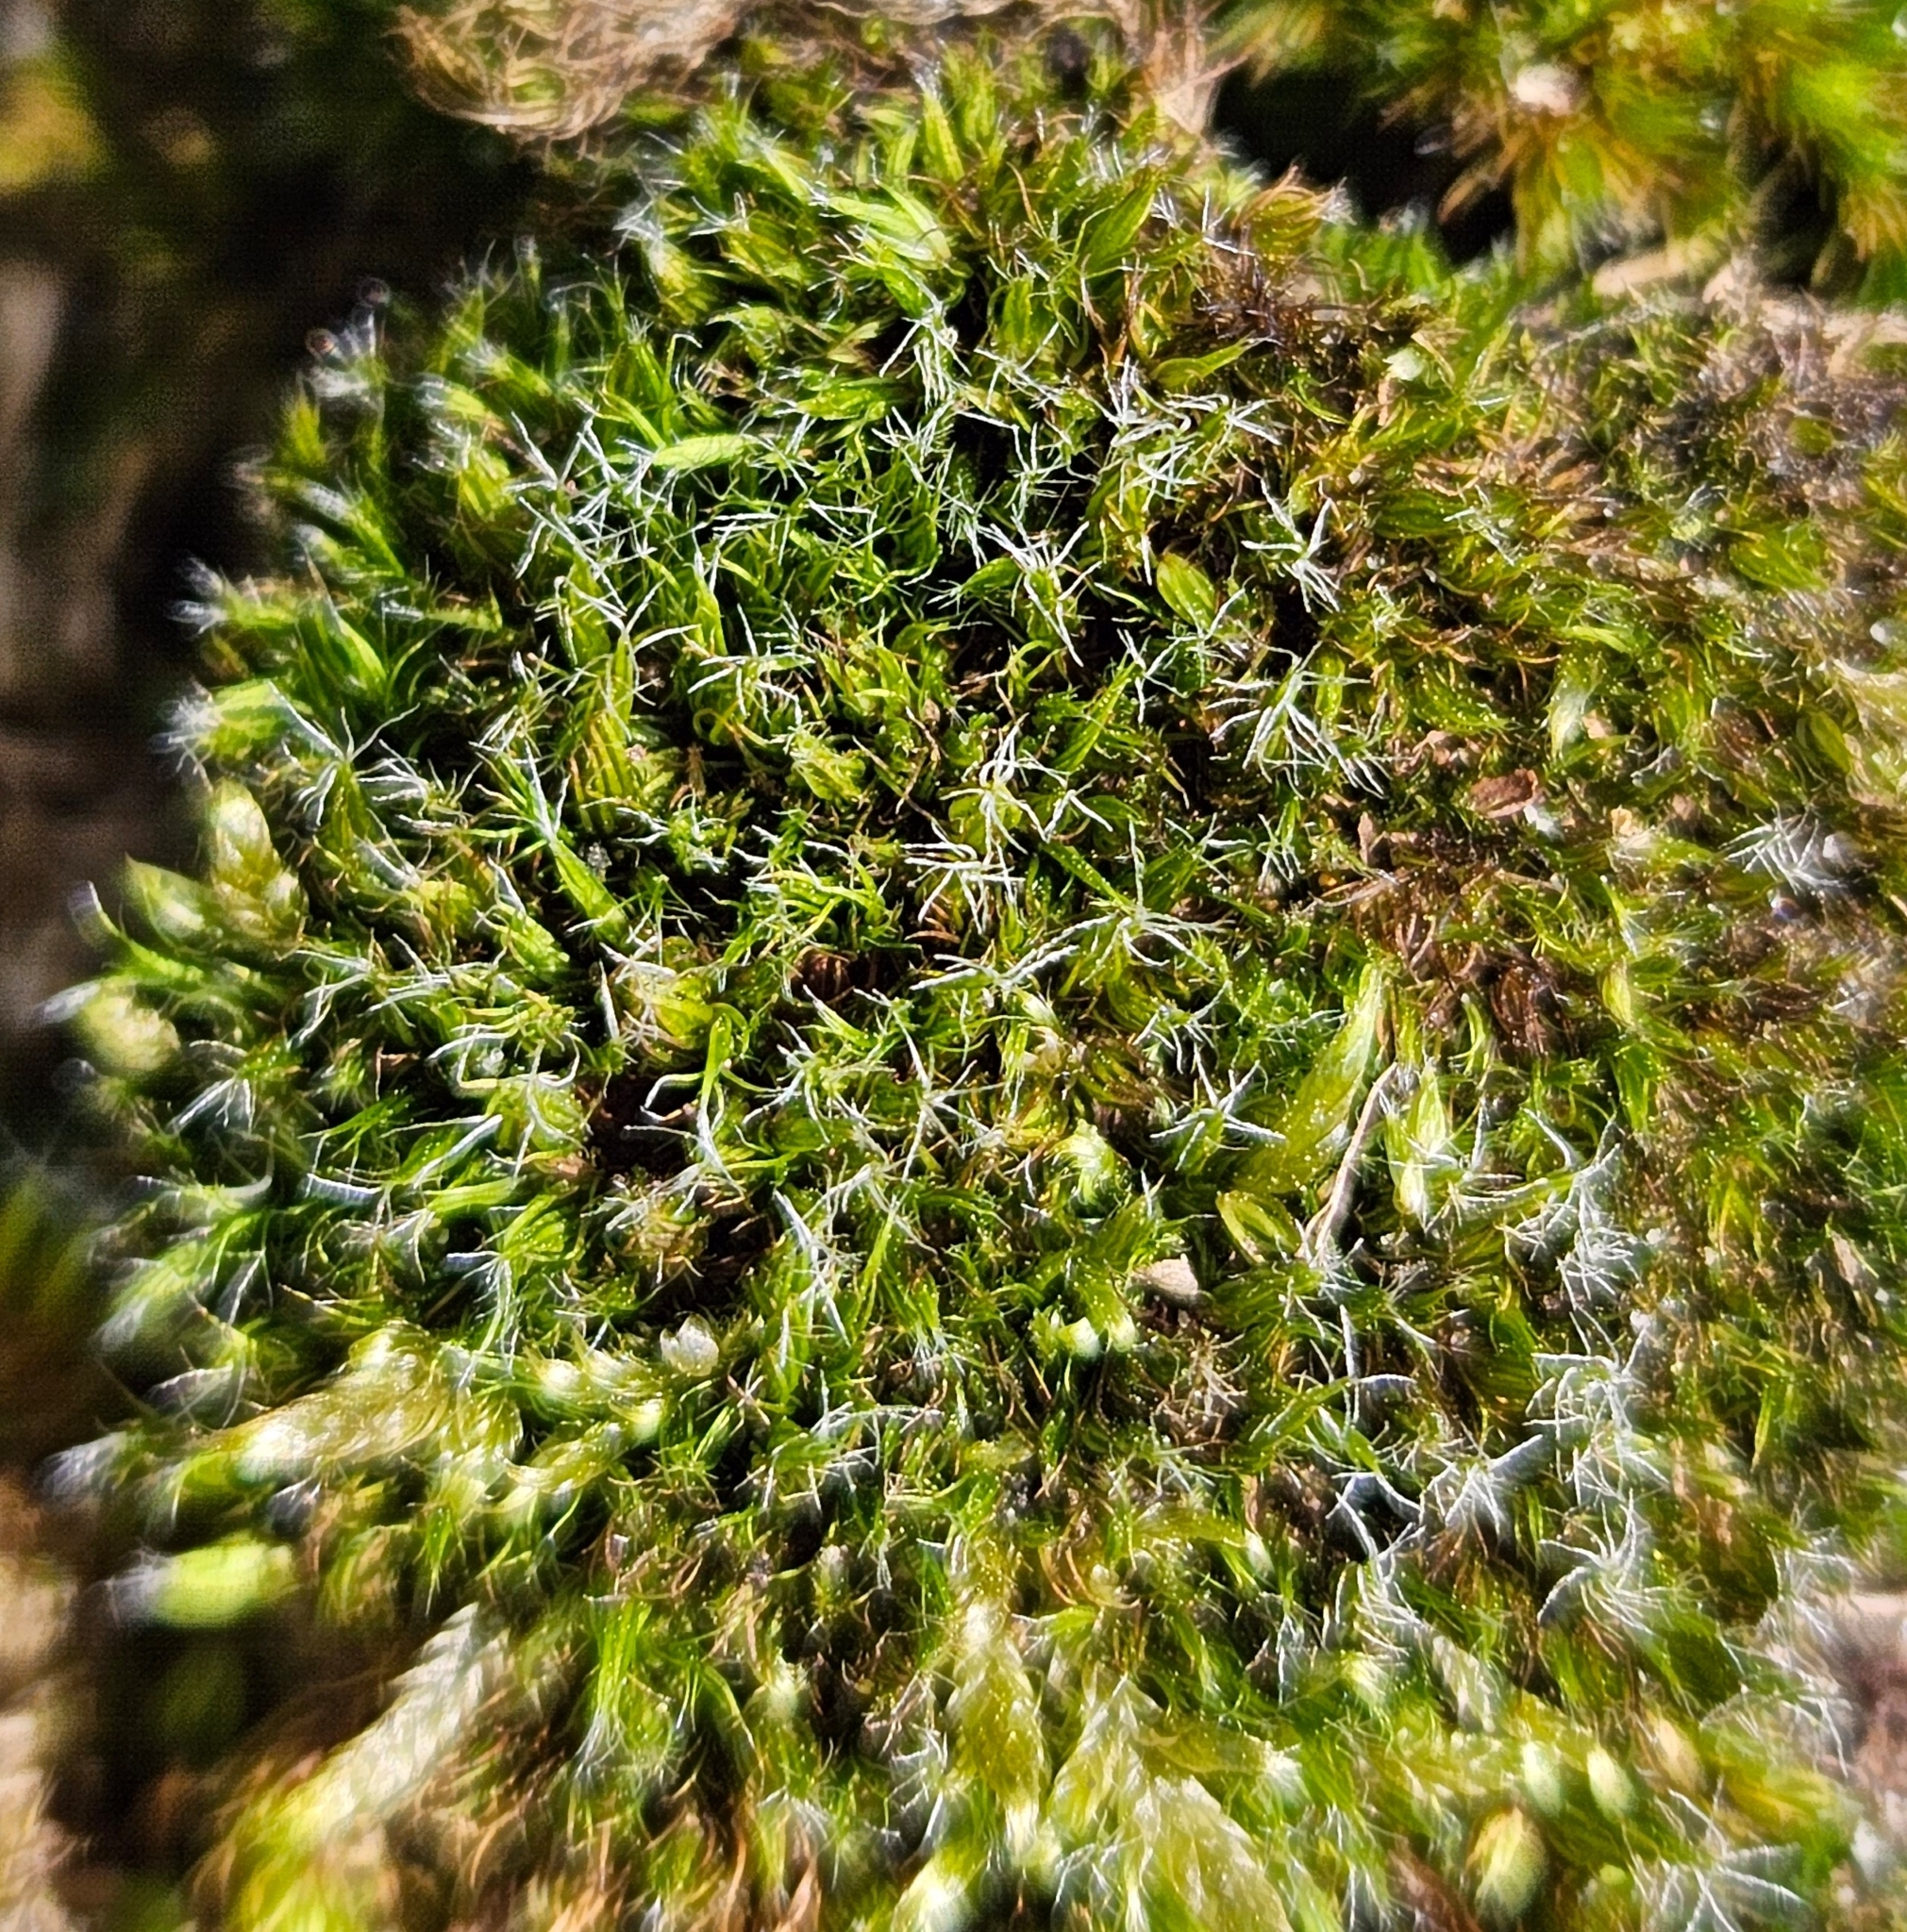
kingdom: Plantae
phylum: Bryophyta
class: Bryopsida
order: Dicranales
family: Leucobryaceae
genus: Campylopus
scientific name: Campylopus introflexus
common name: Heath star moss
